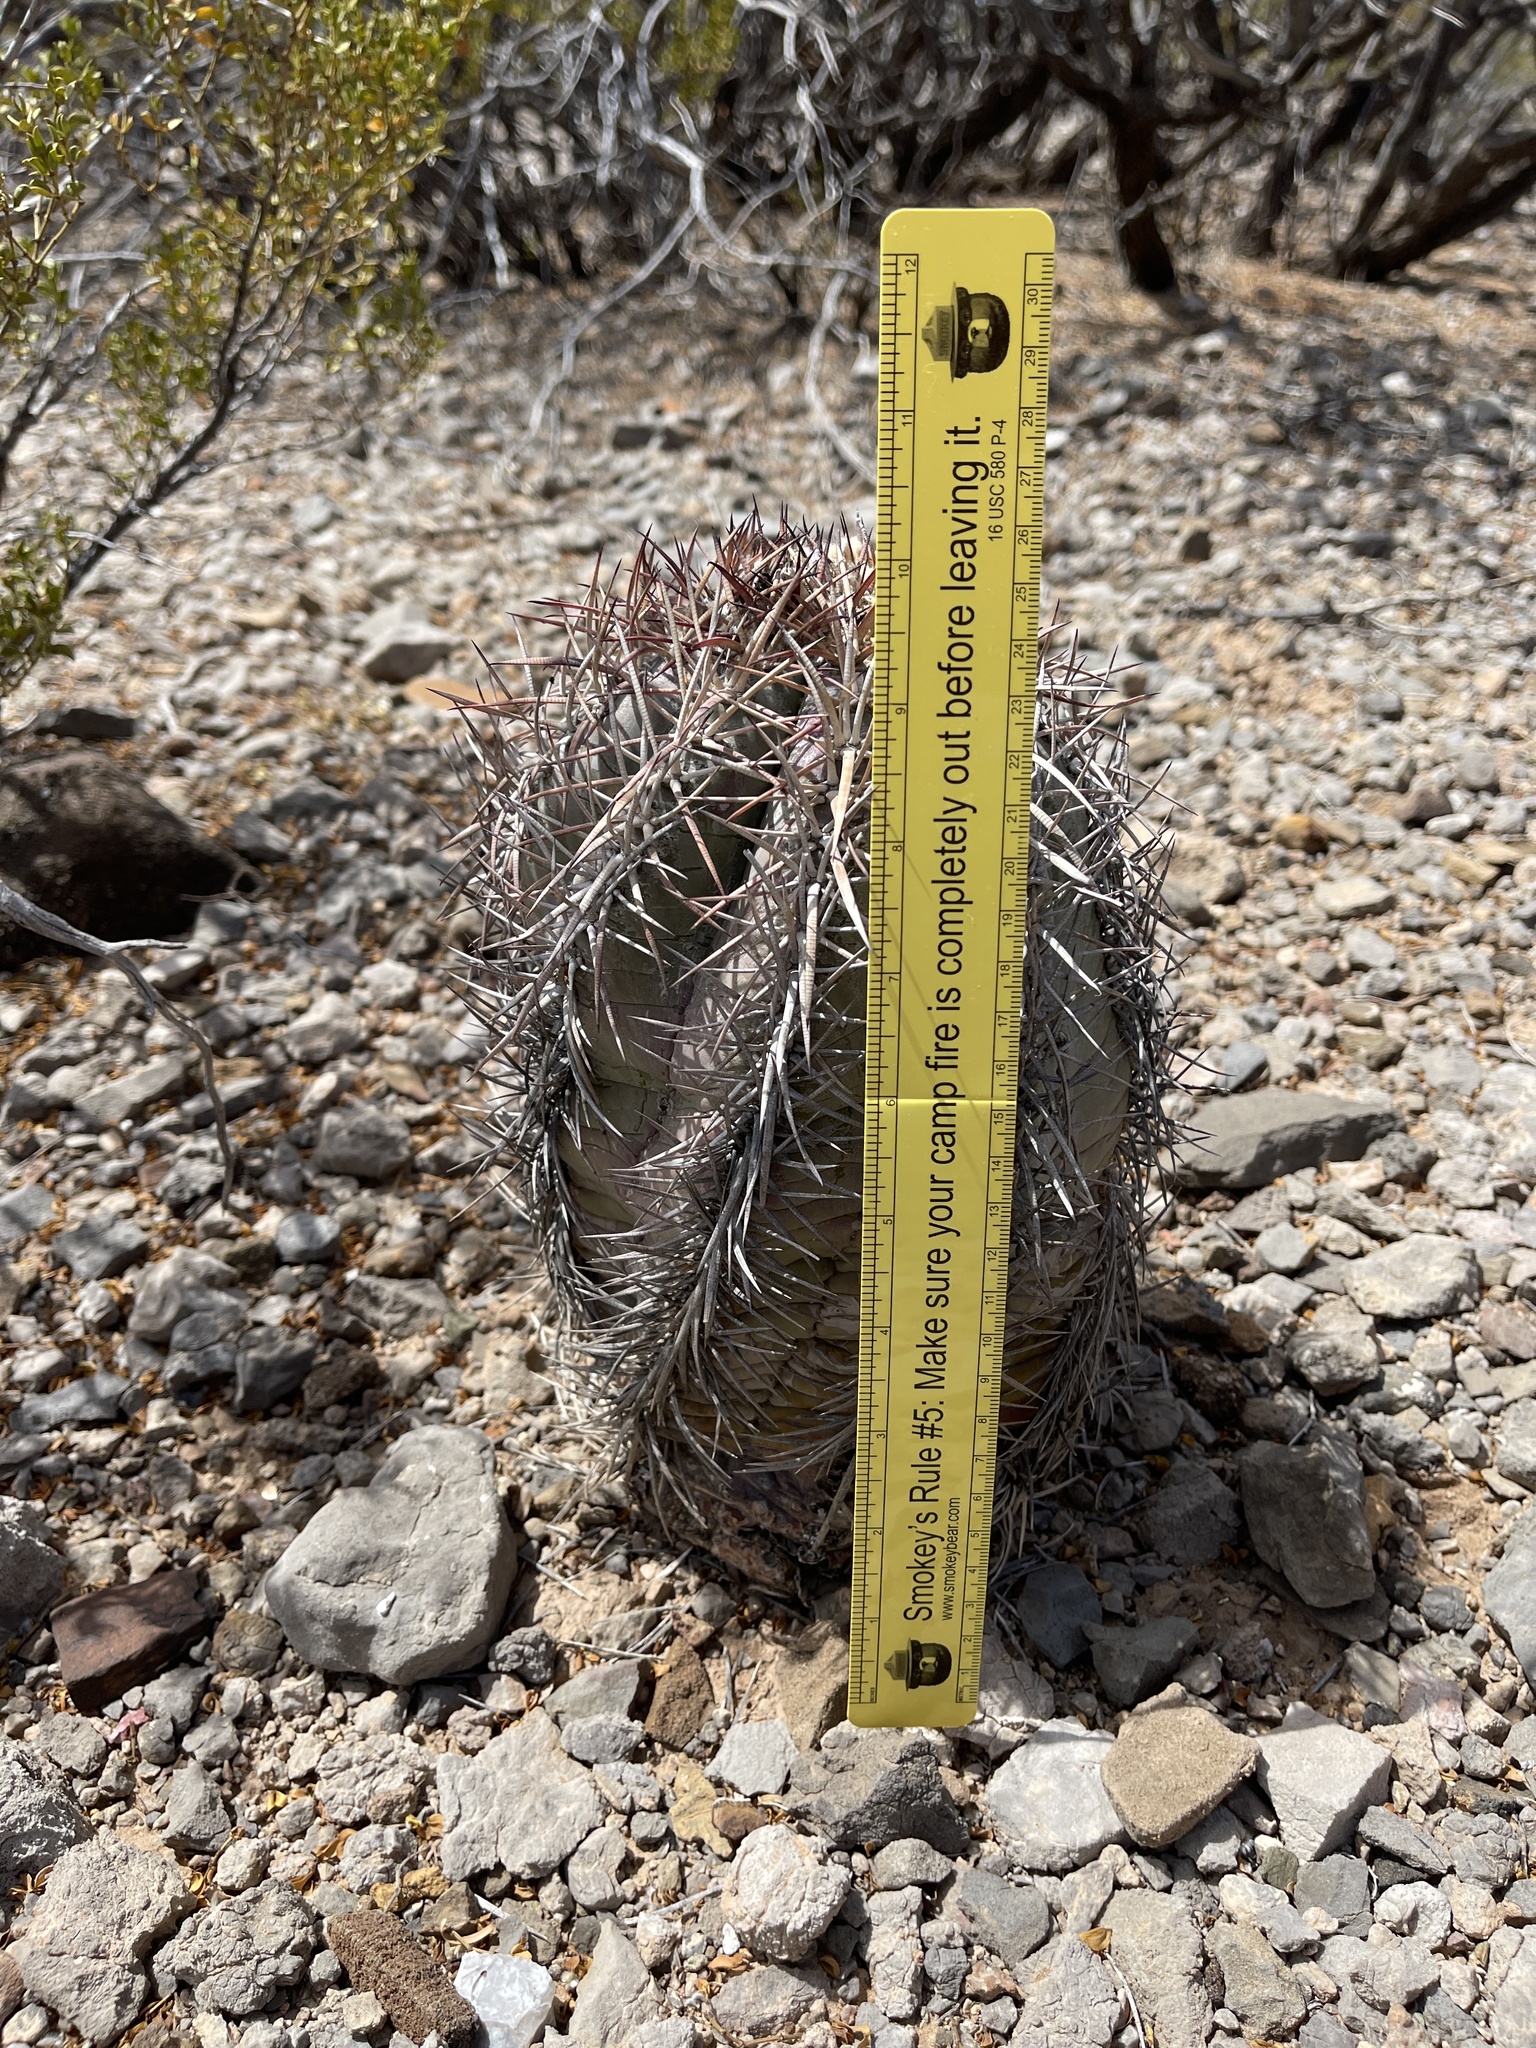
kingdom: Plantae
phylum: Tracheophyta
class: Magnoliopsida
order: Caryophyllales
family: Cactaceae
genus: Echinocactus
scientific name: Echinocactus horizonthalonius
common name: Devilshead
